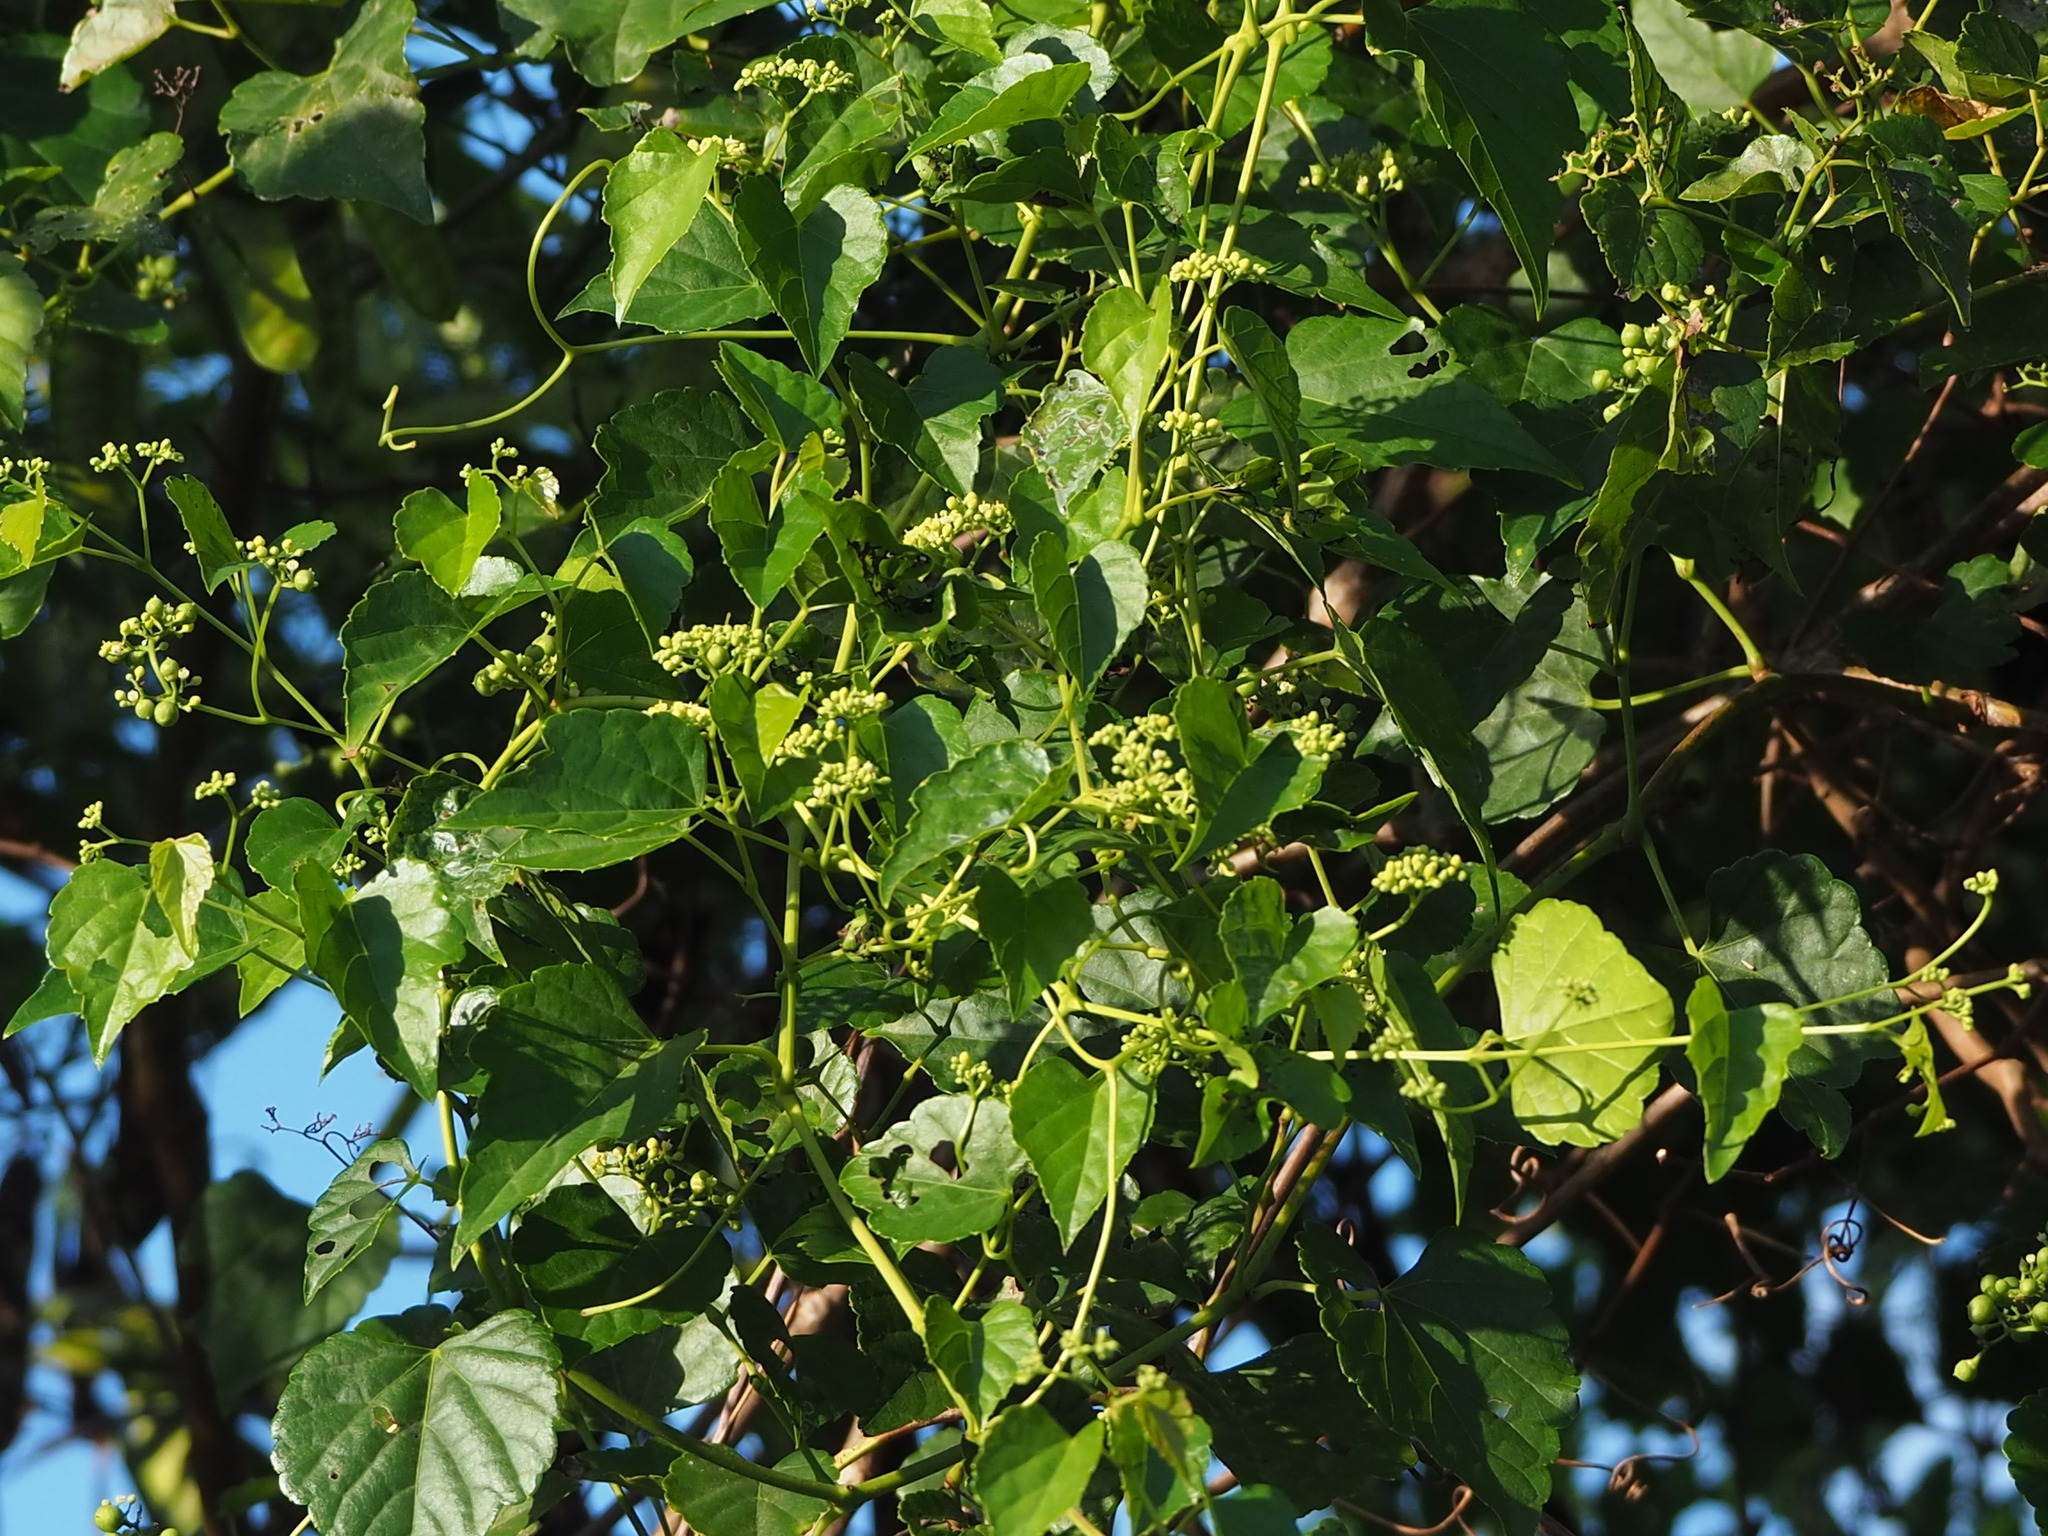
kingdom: Plantae
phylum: Tracheophyta
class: Magnoliopsida
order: Vitales
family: Vitaceae
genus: Ampelopsis
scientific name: Ampelopsis glandulosa
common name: Amur peppervine
